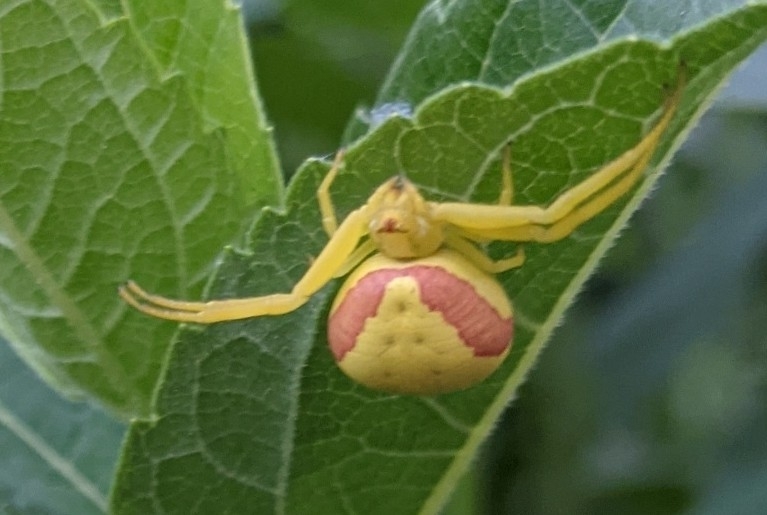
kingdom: Animalia
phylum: Arthropoda
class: Arachnida
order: Araneae
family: Thomisidae
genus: Misumena
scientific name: Misumena vatia
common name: Goldenrod crab spider
